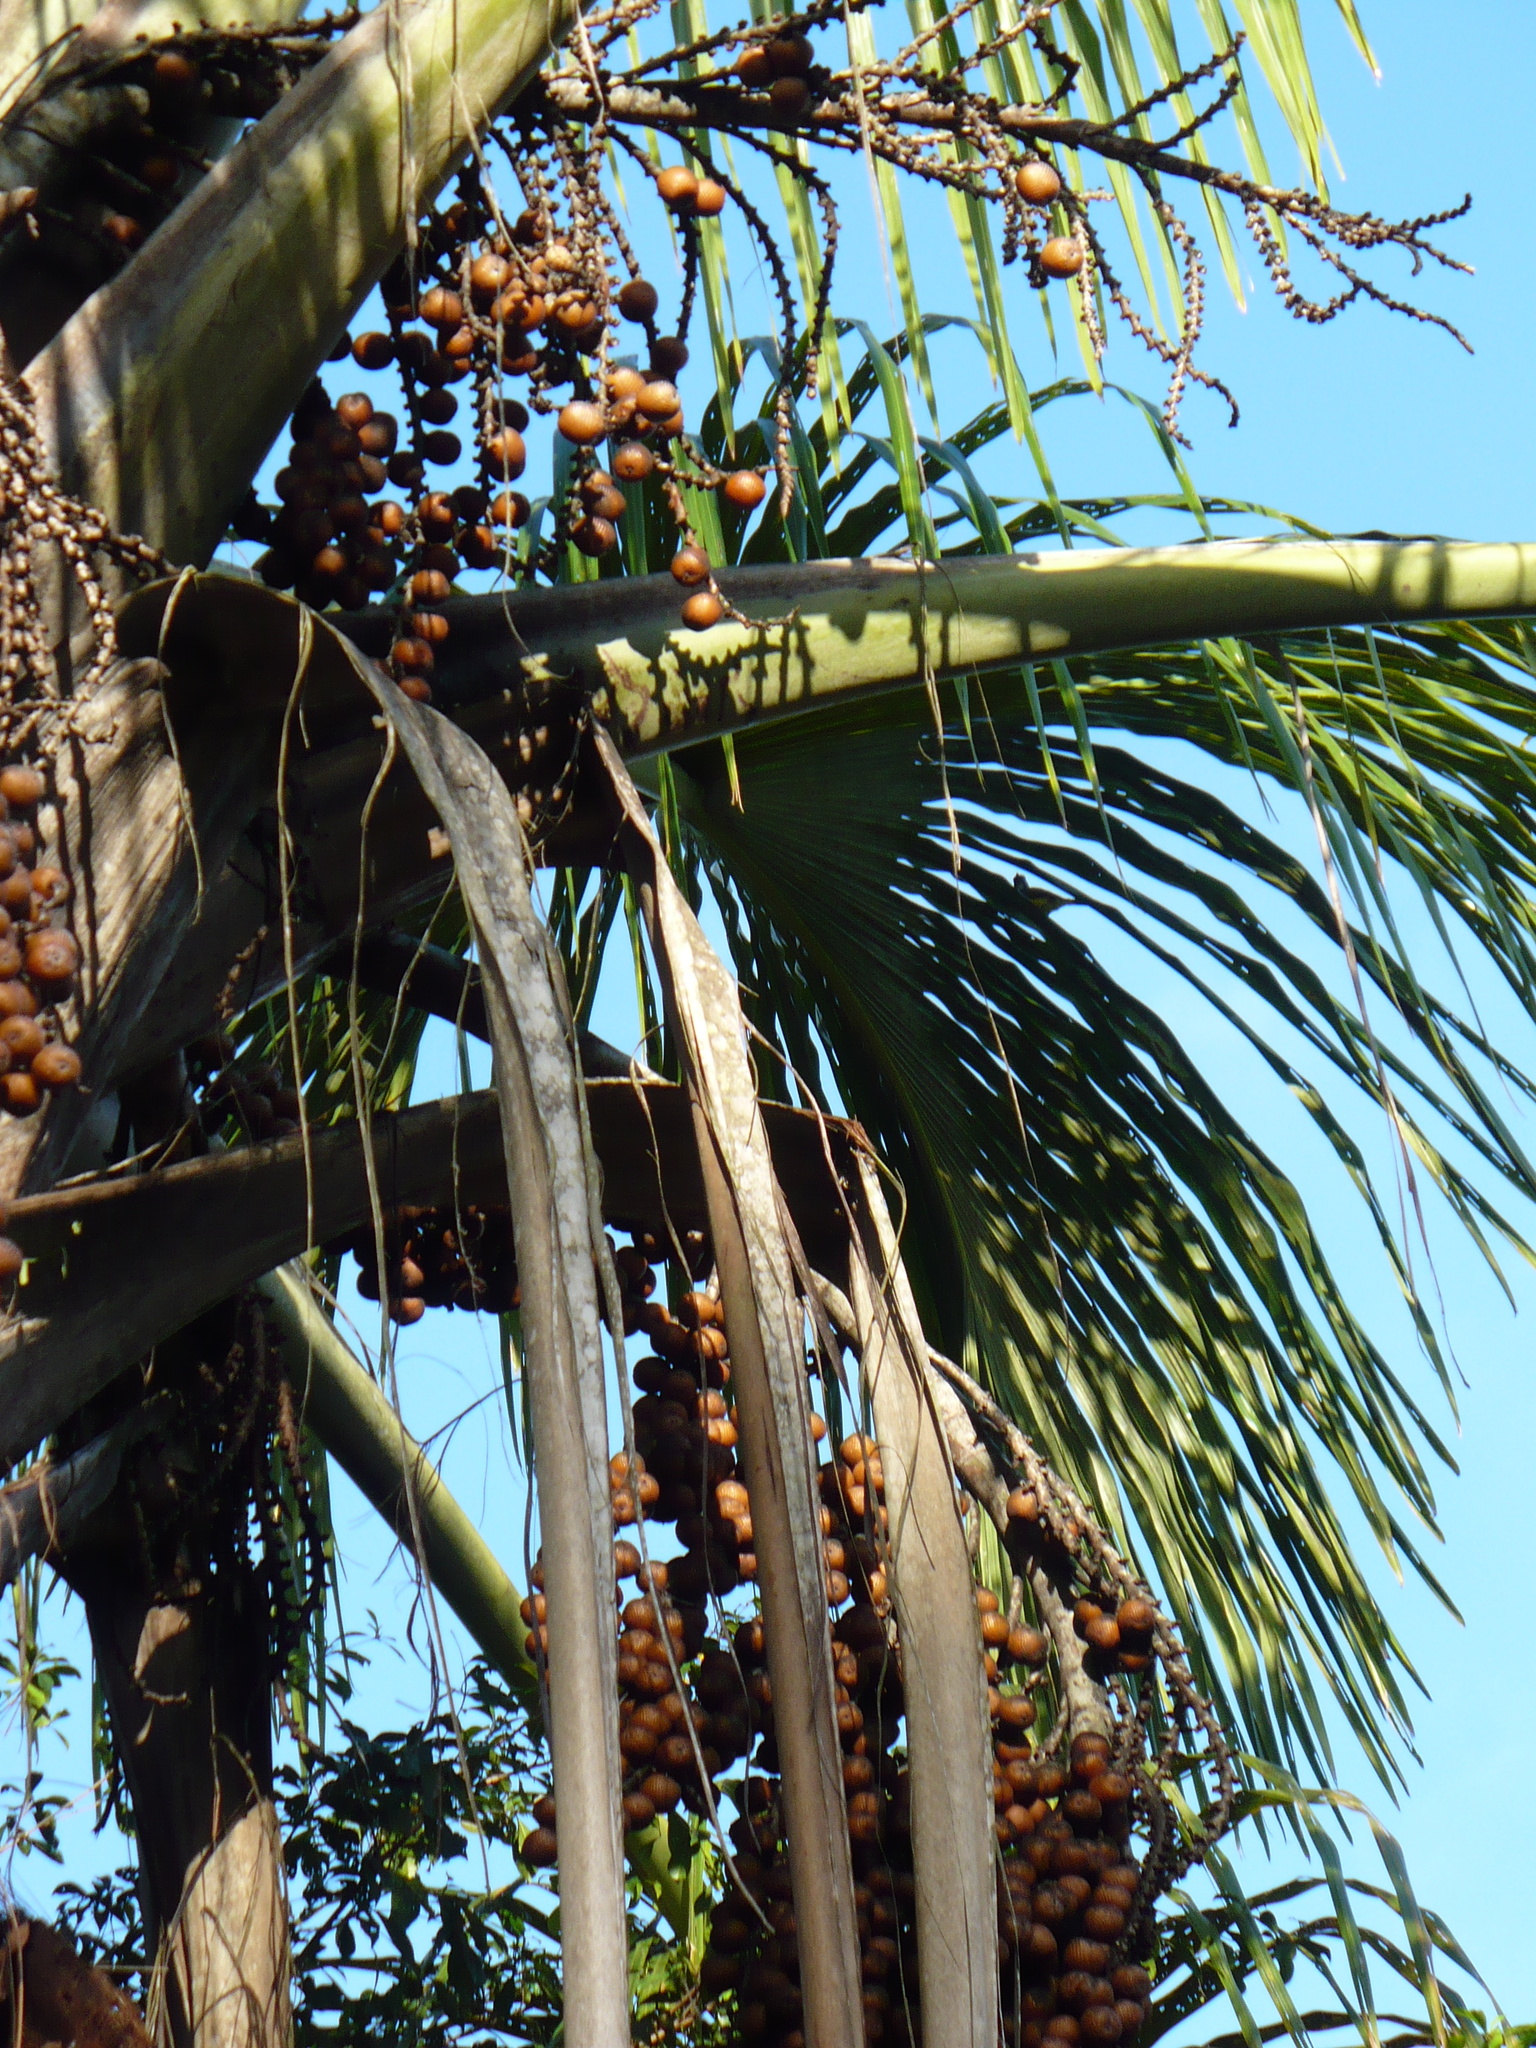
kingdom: Plantae
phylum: Tracheophyta
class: Liliopsida
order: Arecales
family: Arecaceae
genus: Mauritia
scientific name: Mauritia flexuosa
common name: Tree-of-life
